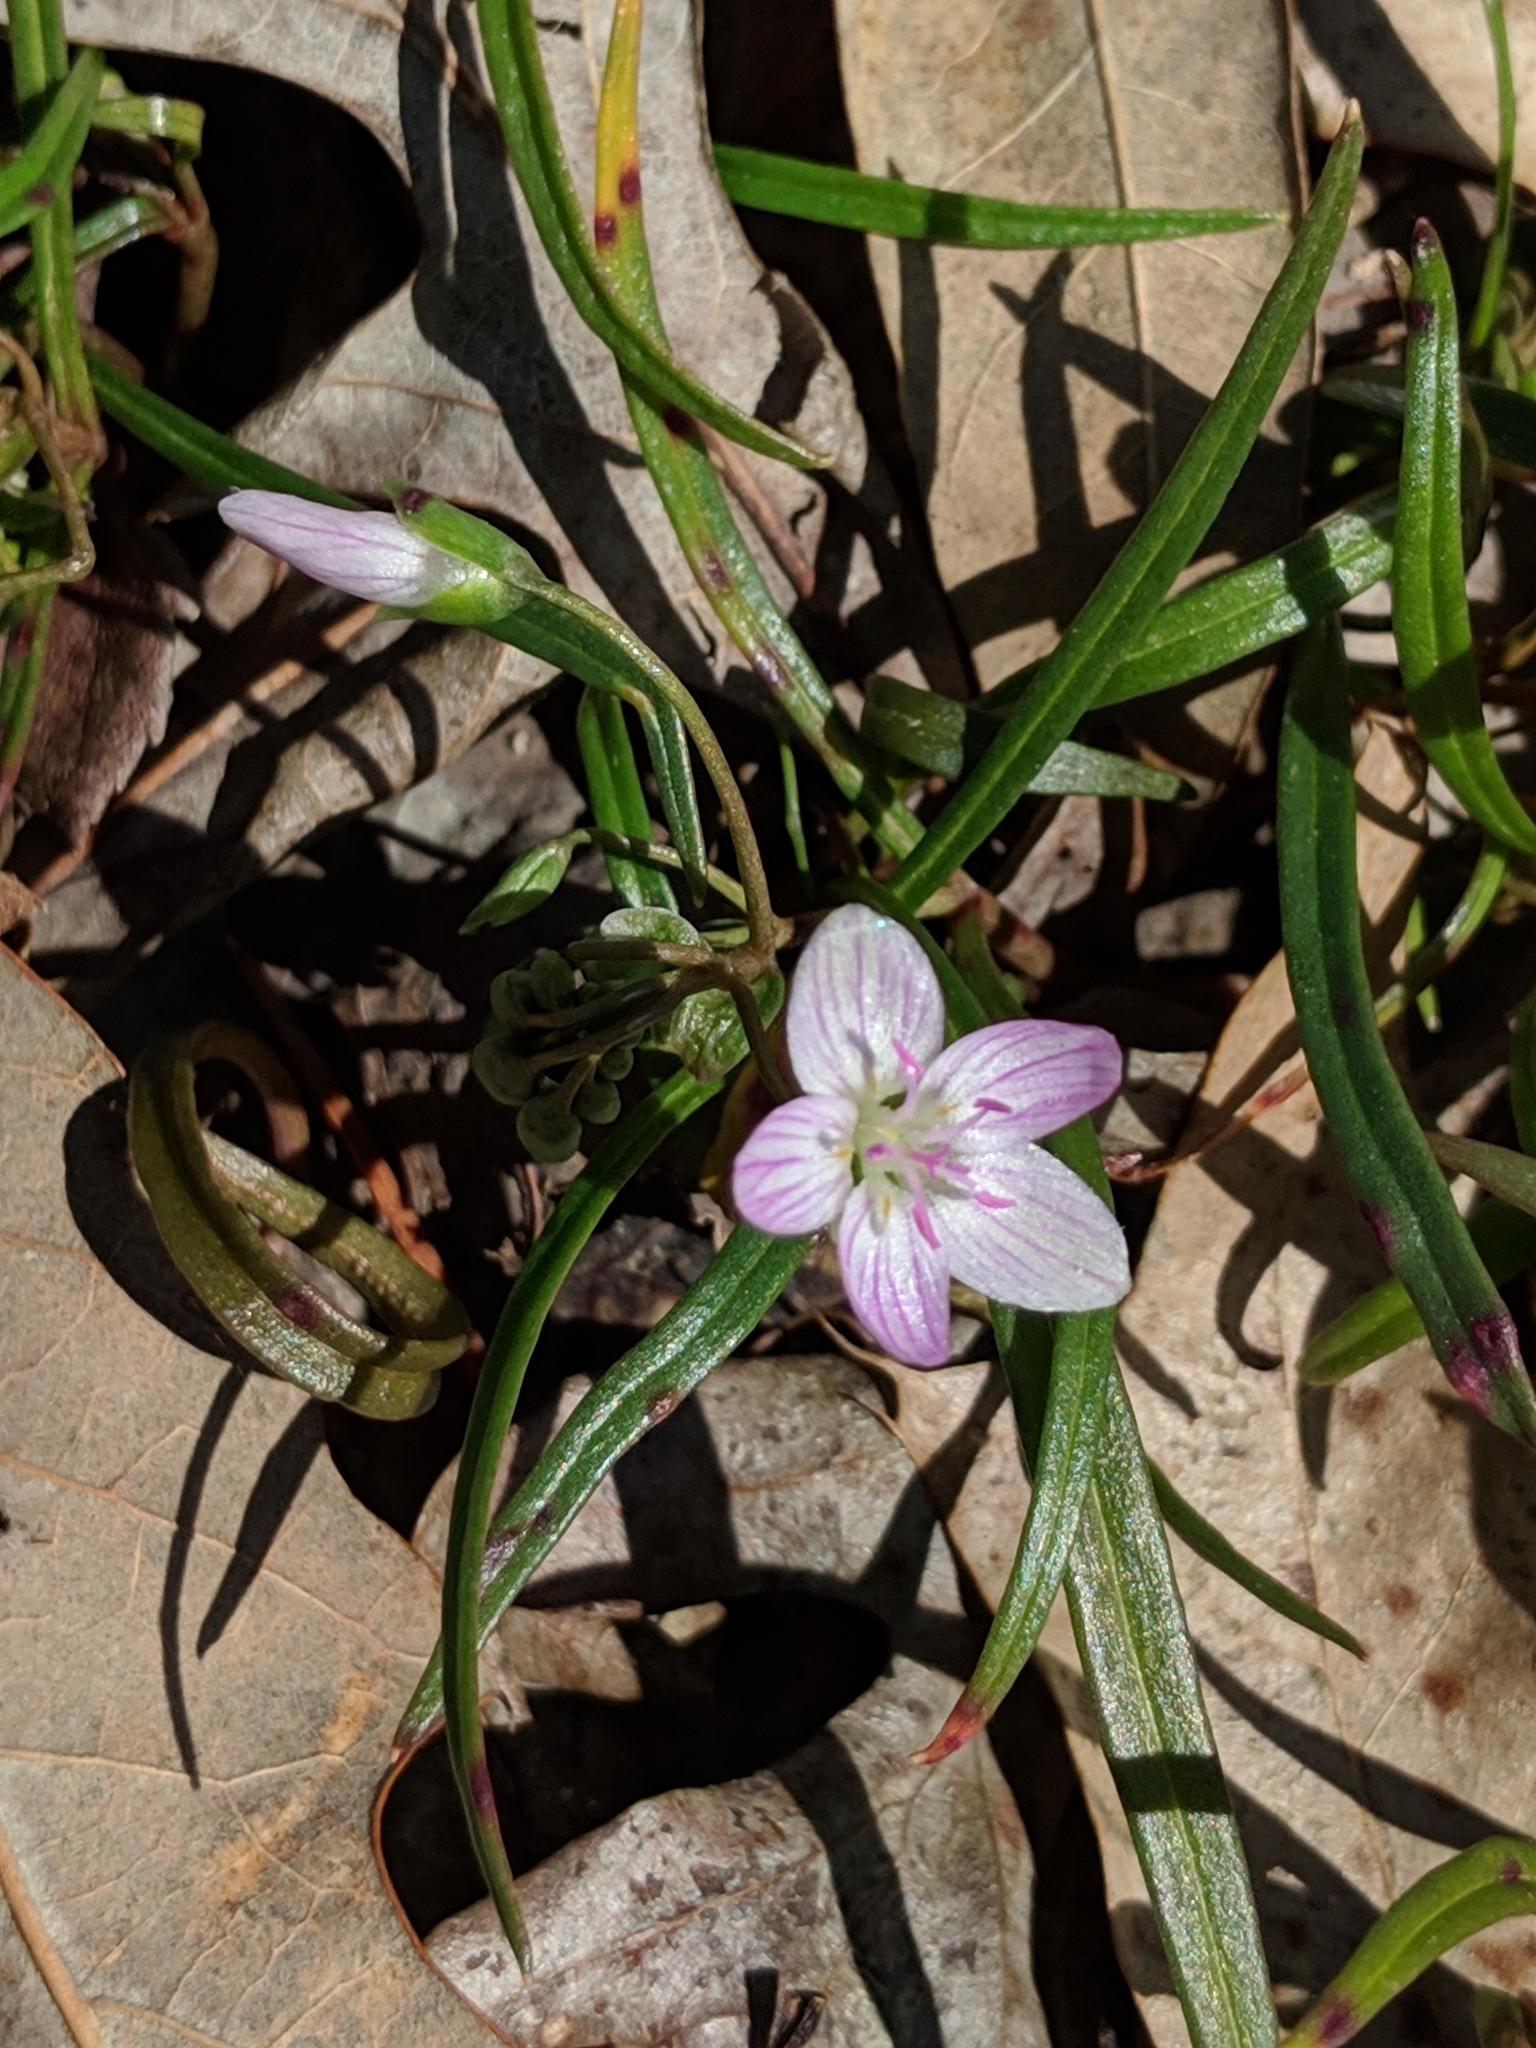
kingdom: Plantae
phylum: Tracheophyta
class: Magnoliopsida
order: Caryophyllales
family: Montiaceae
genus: Claytonia
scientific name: Claytonia virginica
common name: Virginia springbeauty
